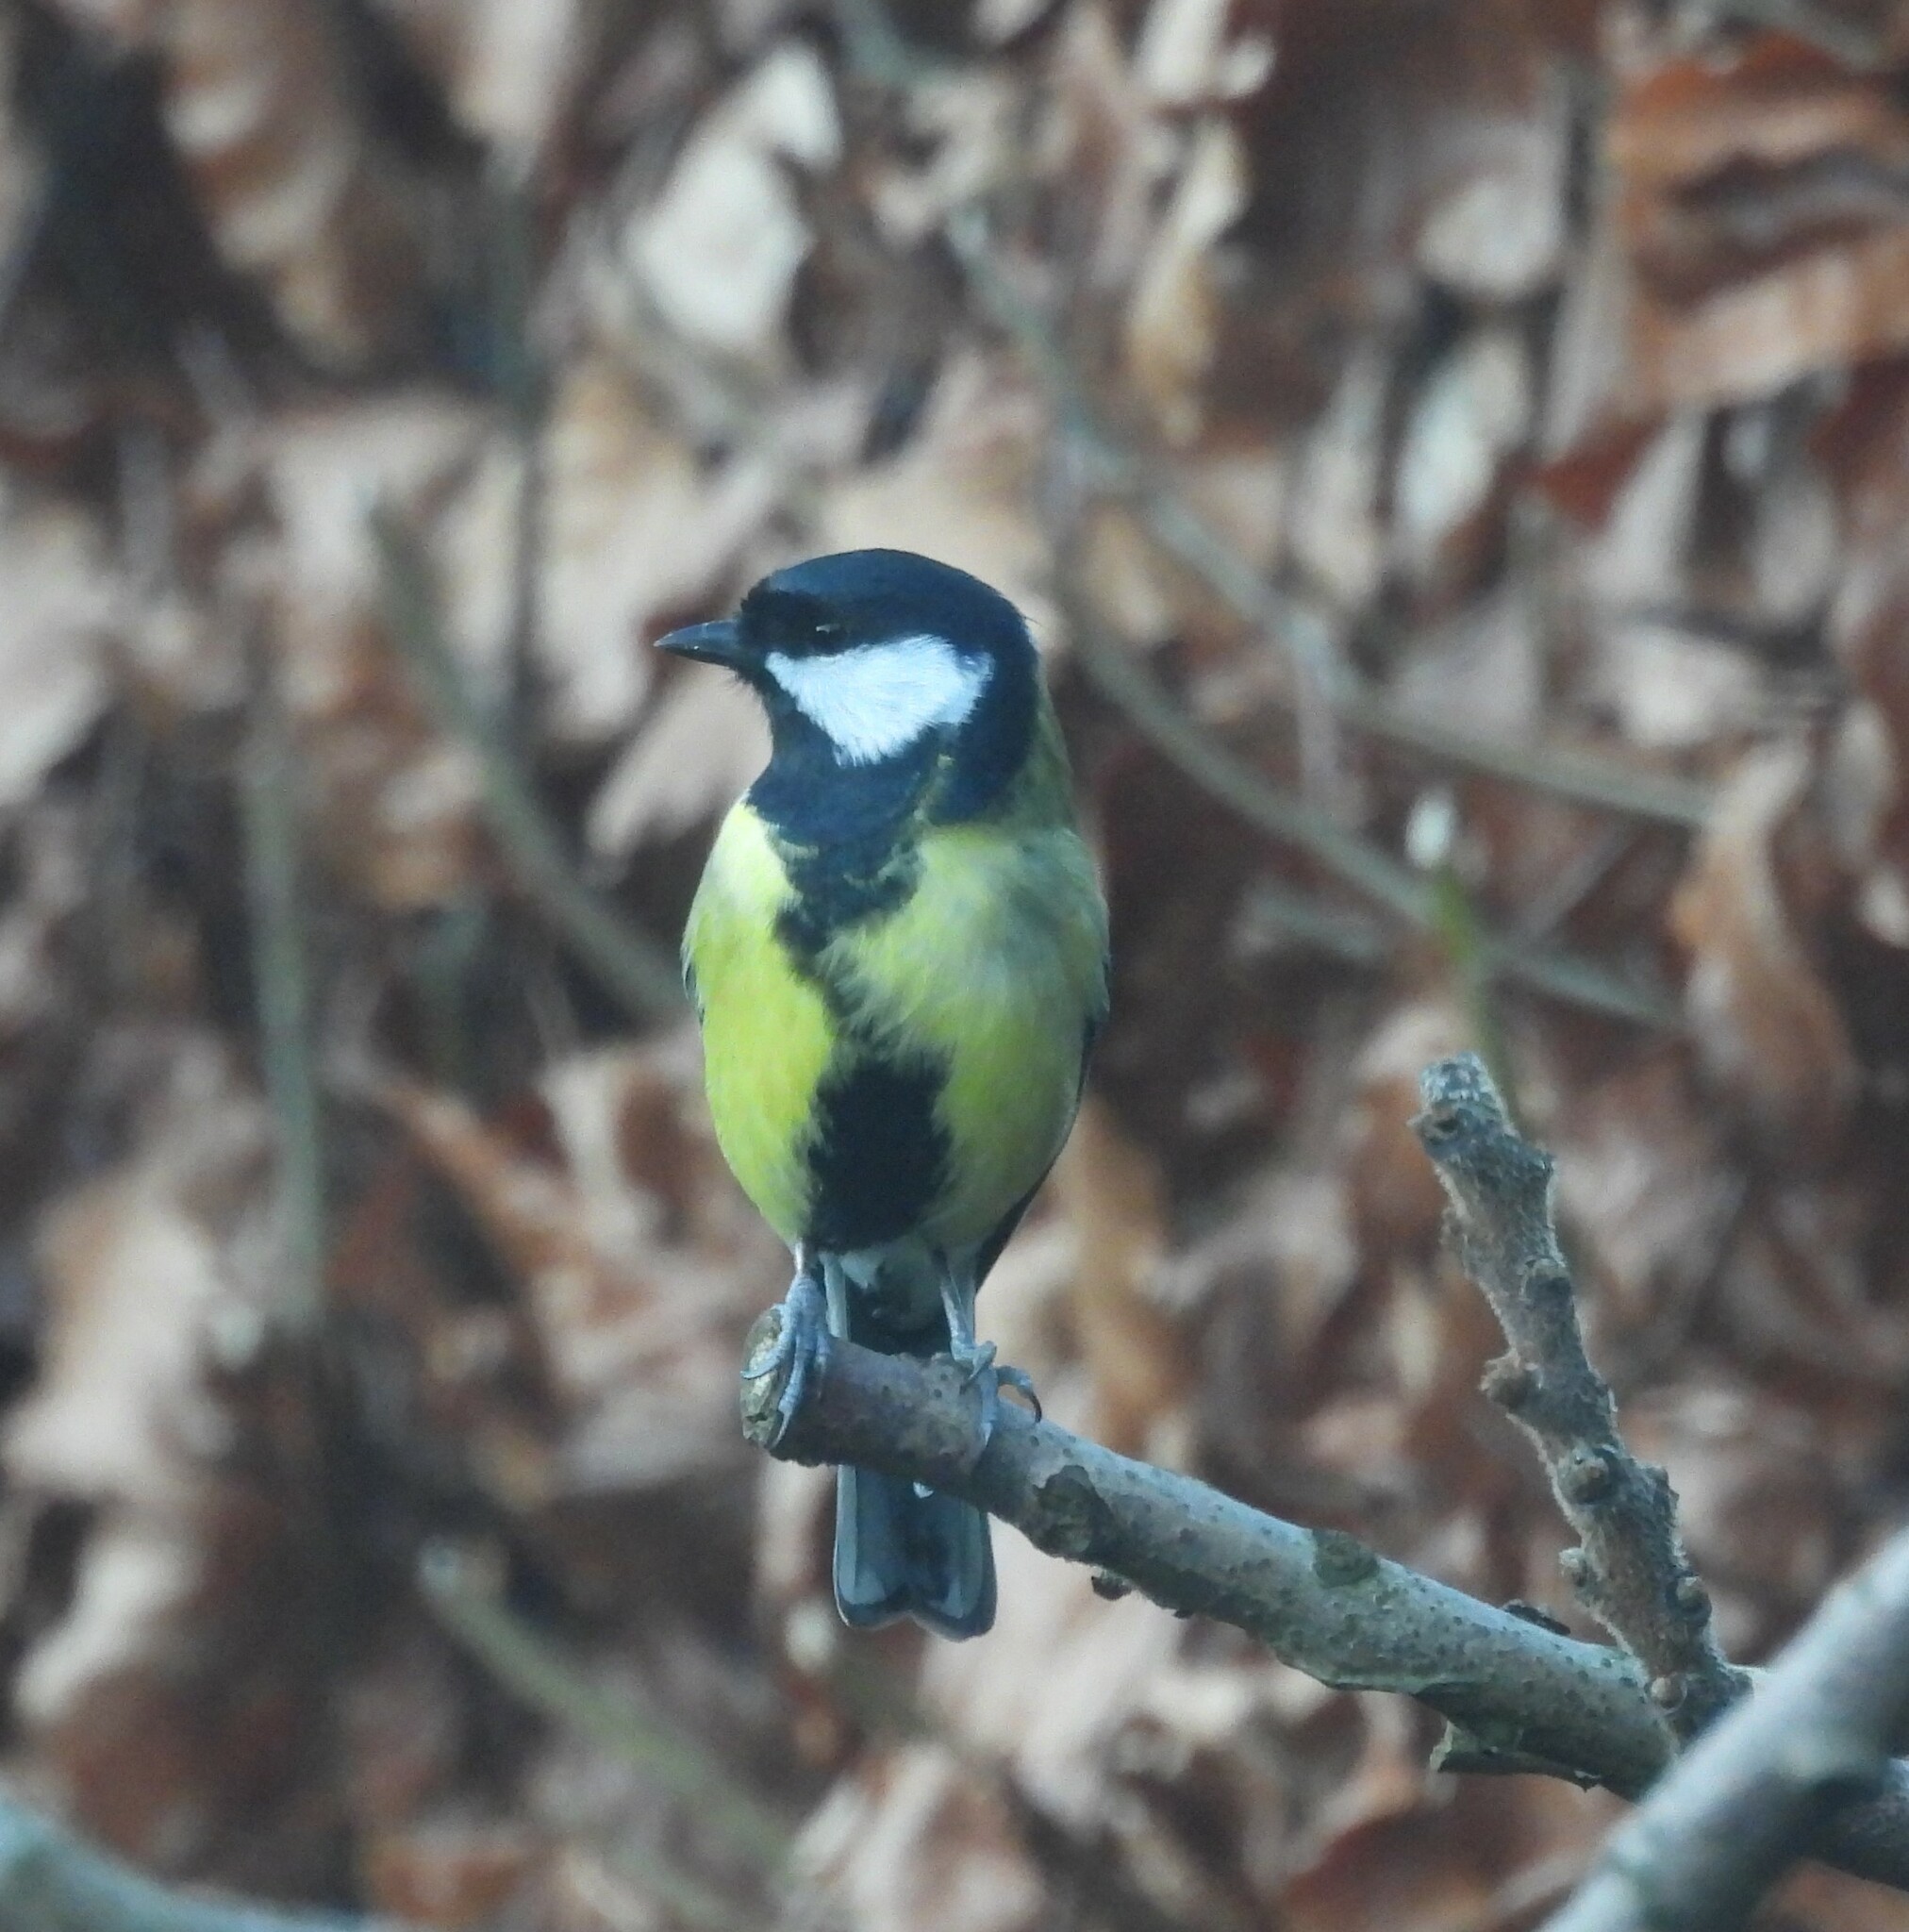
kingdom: Animalia
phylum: Chordata
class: Aves
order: Passeriformes
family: Paridae
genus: Parus
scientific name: Parus major
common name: Great tit
